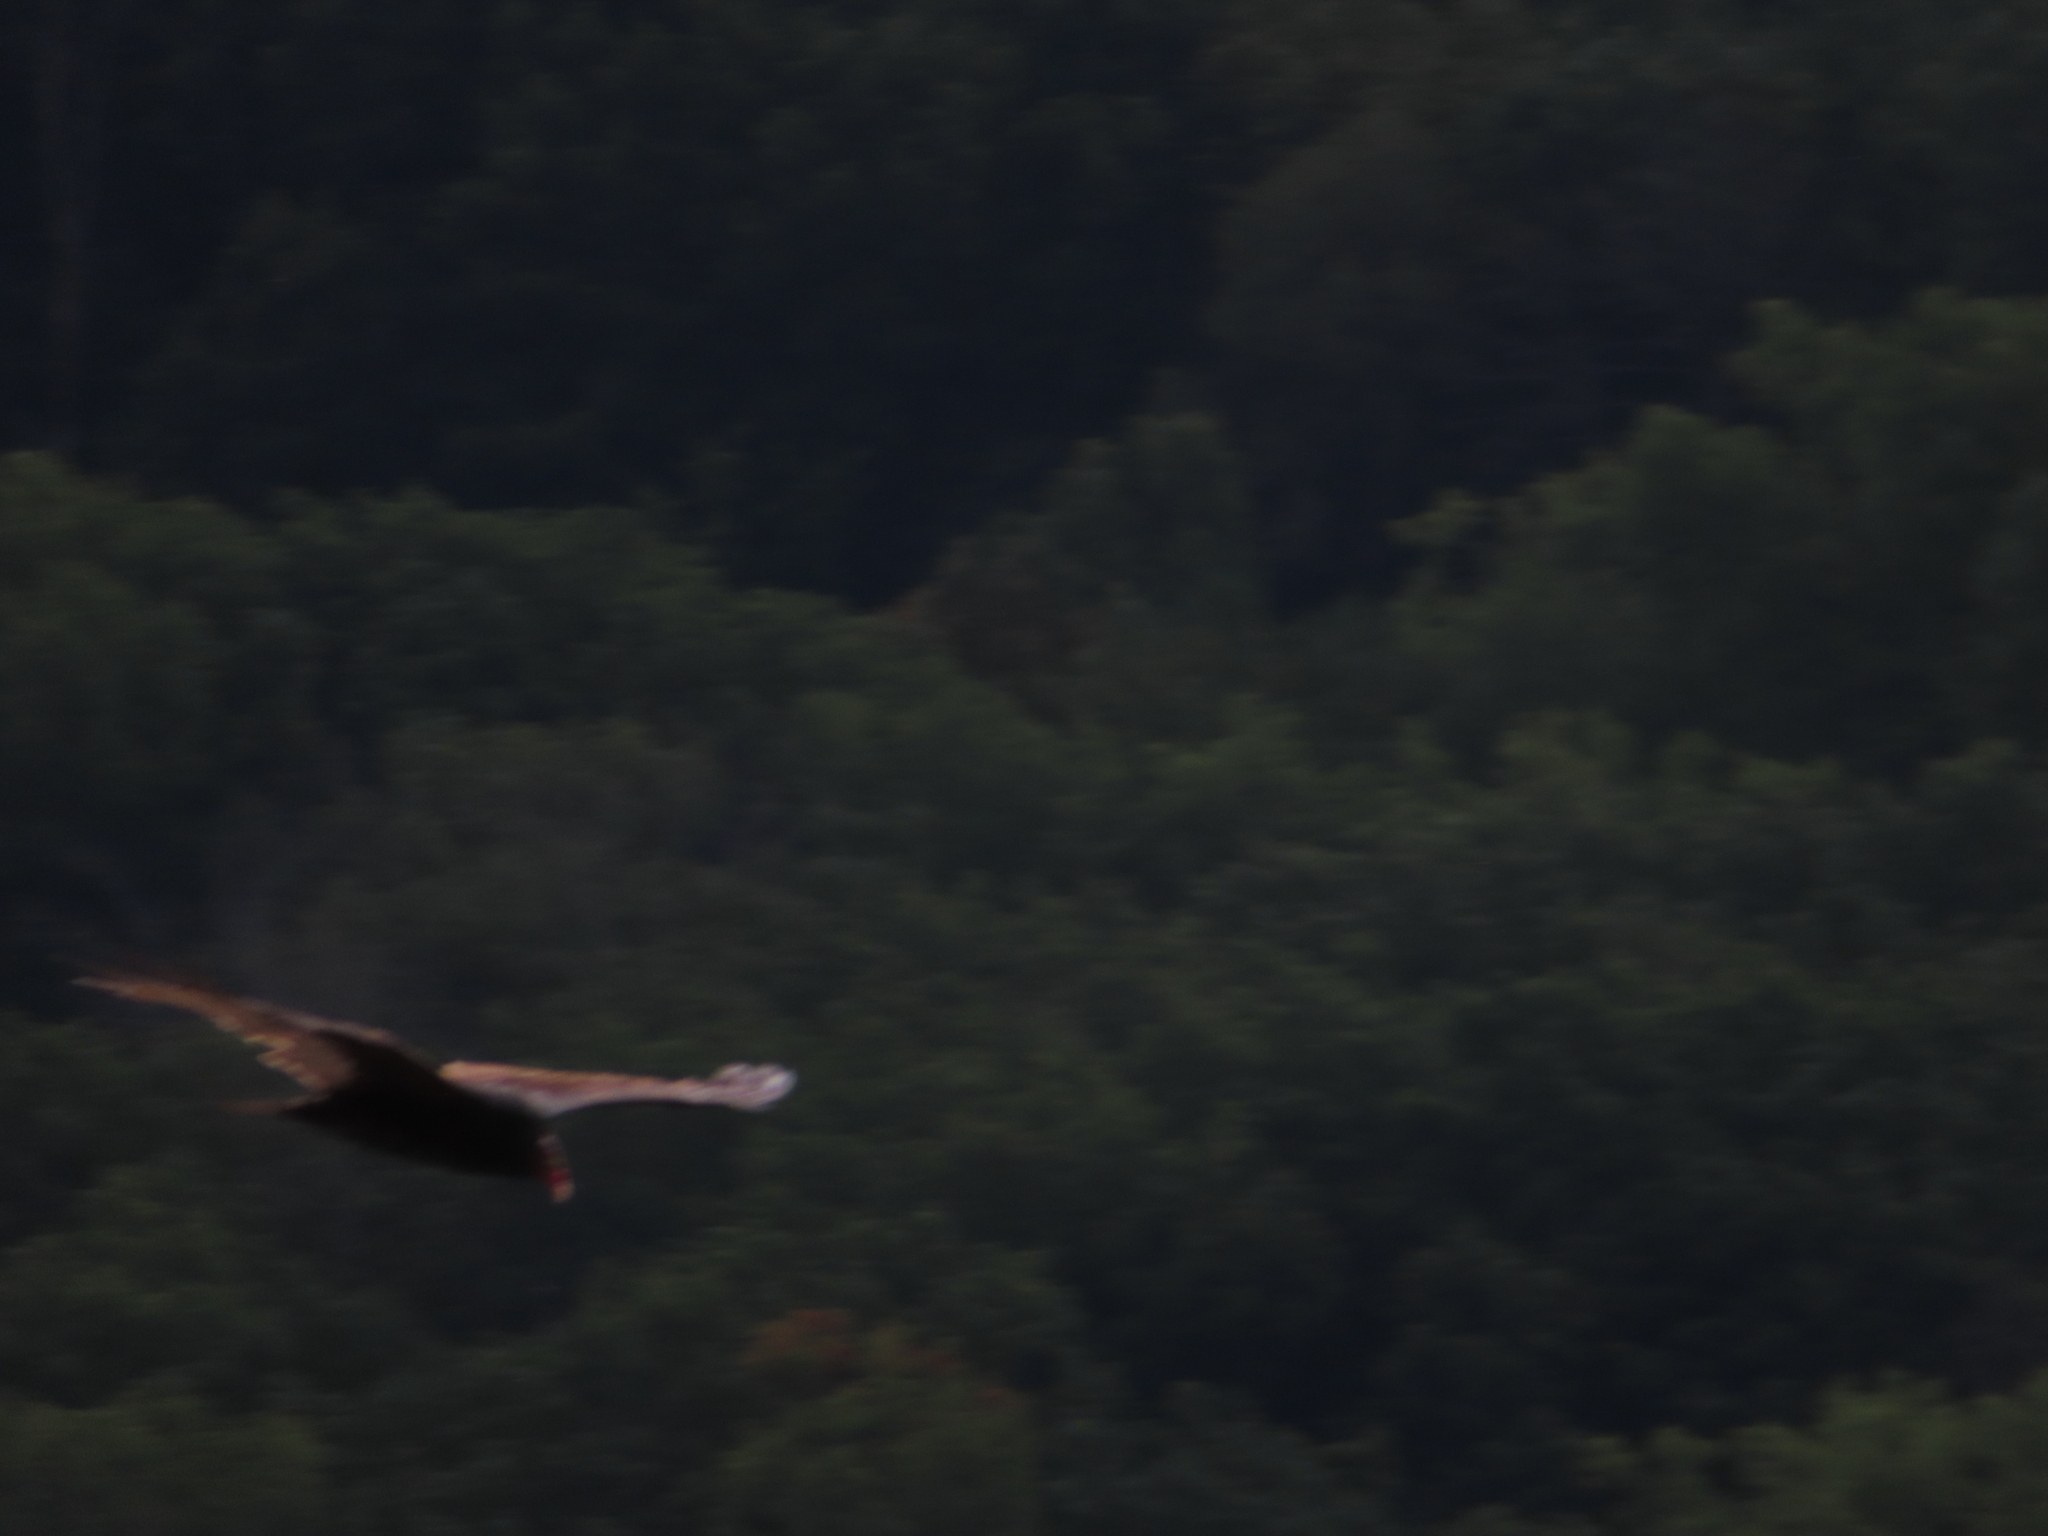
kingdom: Animalia
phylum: Chordata
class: Aves
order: Accipitriformes
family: Cathartidae
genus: Cathartes
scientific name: Cathartes aura
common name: Turkey vulture
